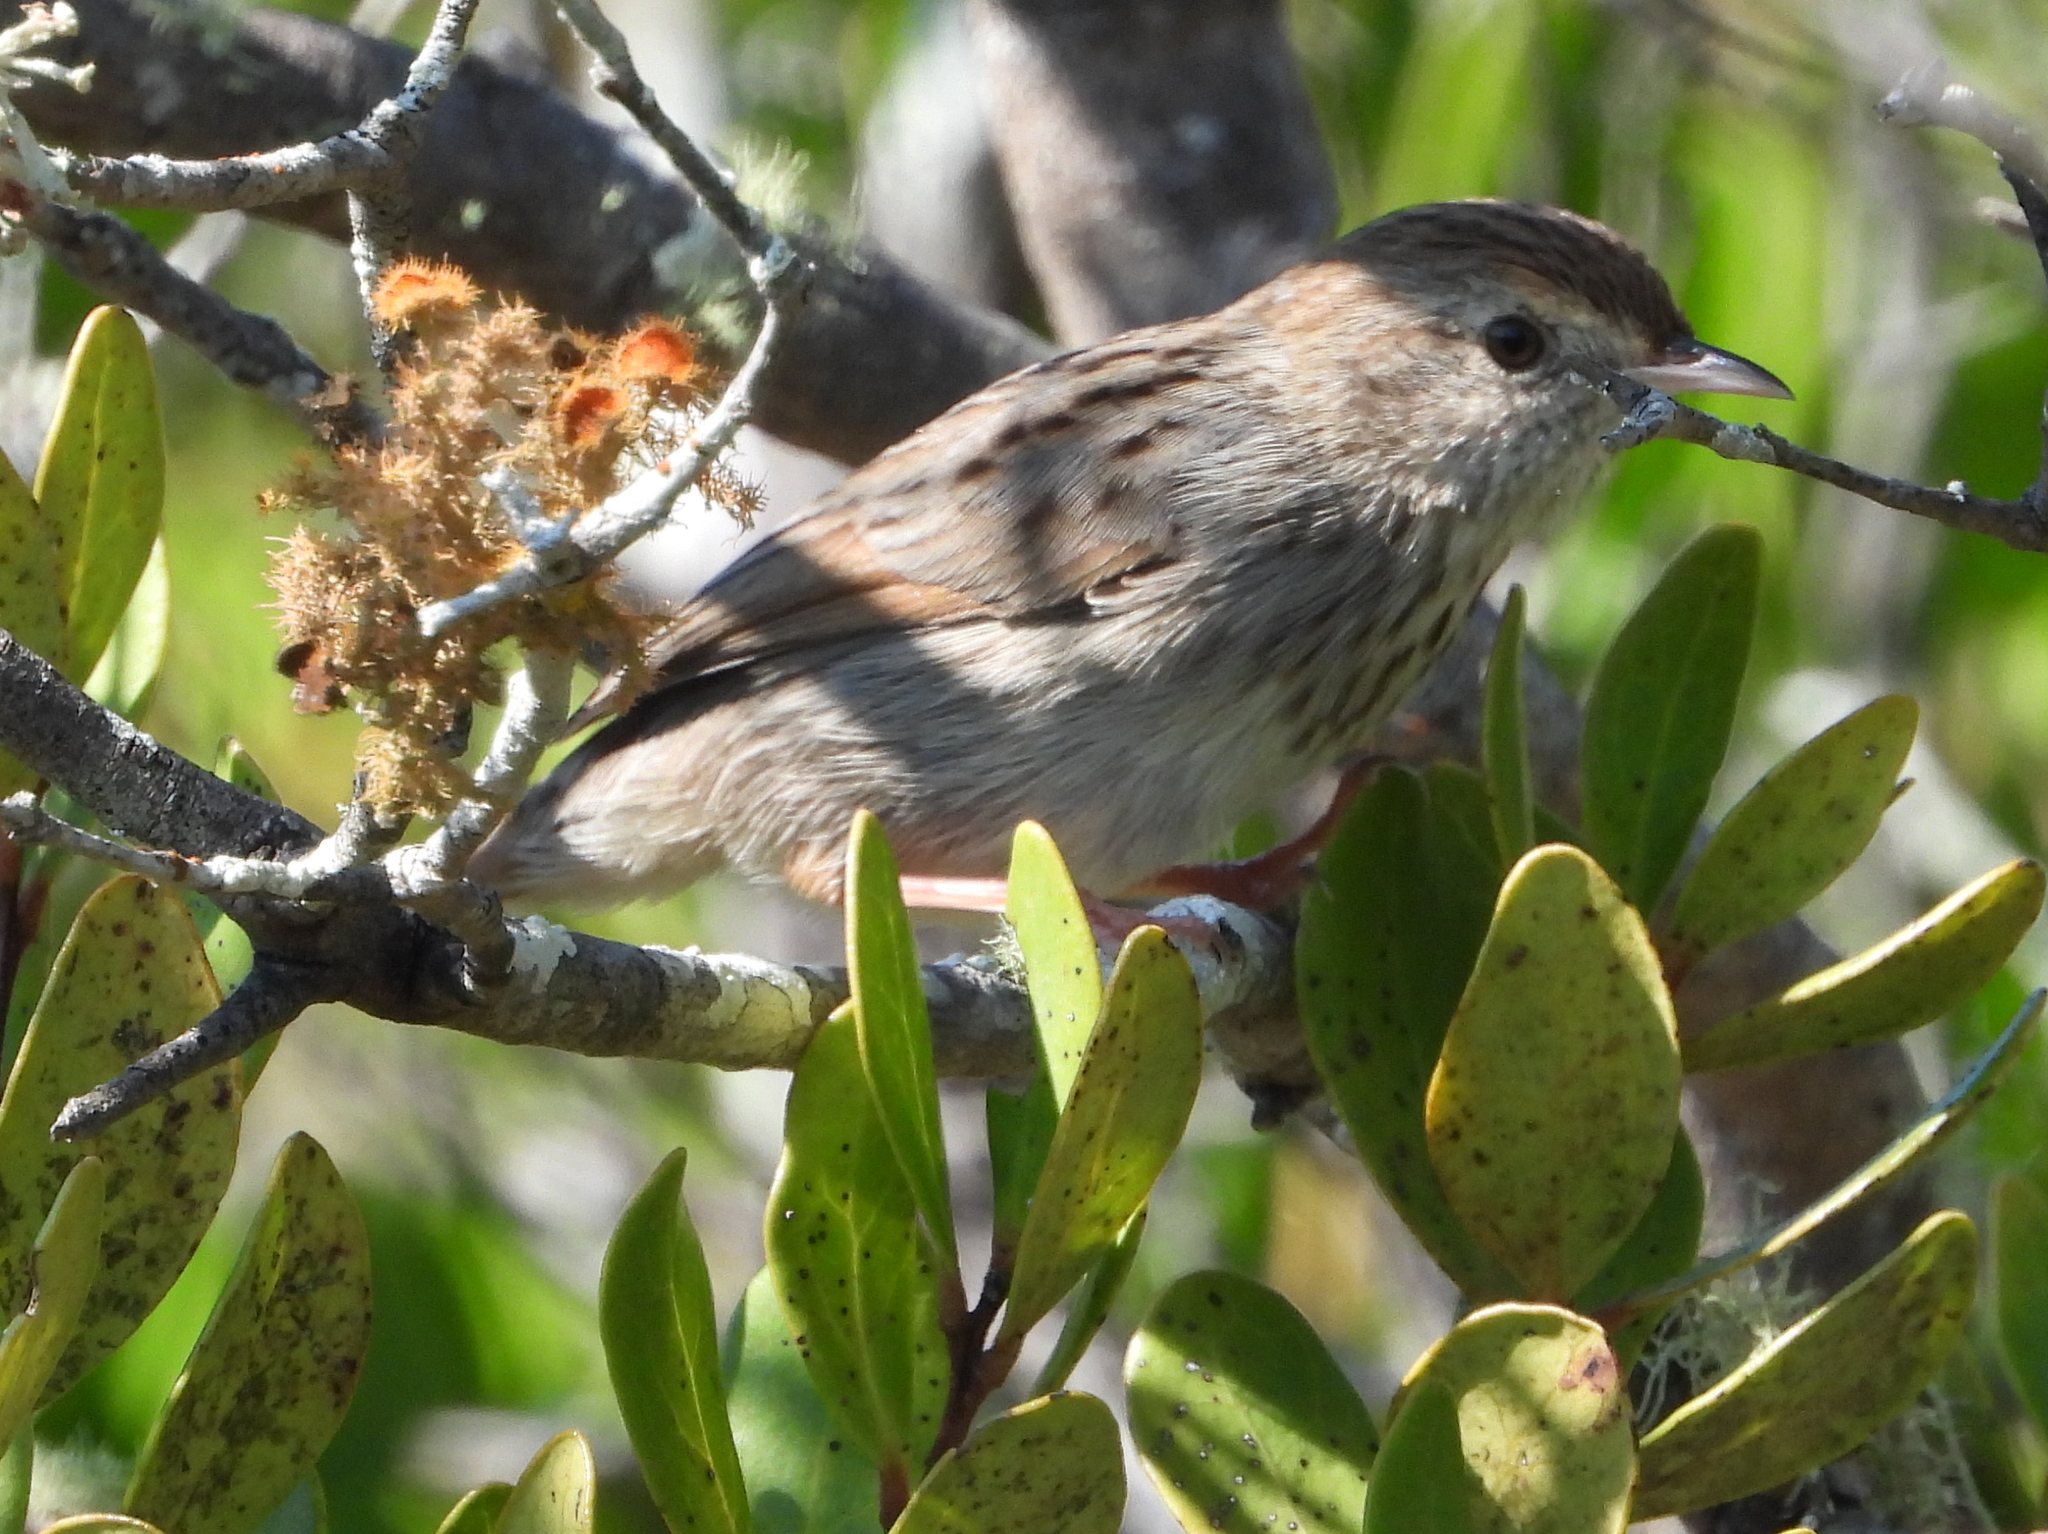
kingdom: Animalia
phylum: Chordata
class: Aves
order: Passeriformes
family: Cisticolidae
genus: Cisticola
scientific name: Cisticola subruficapilla
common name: Grey-backed cisticola
